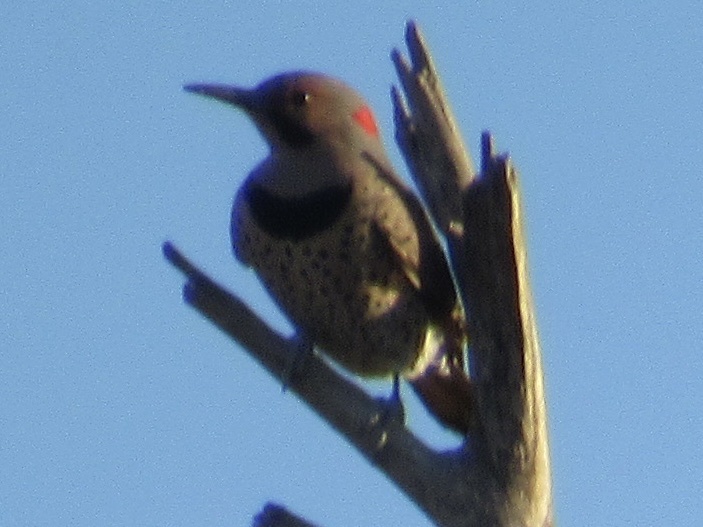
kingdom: Animalia
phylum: Chordata
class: Aves
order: Piciformes
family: Picidae
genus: Colaptes
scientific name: Colaptes auratus
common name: Northern flicker
